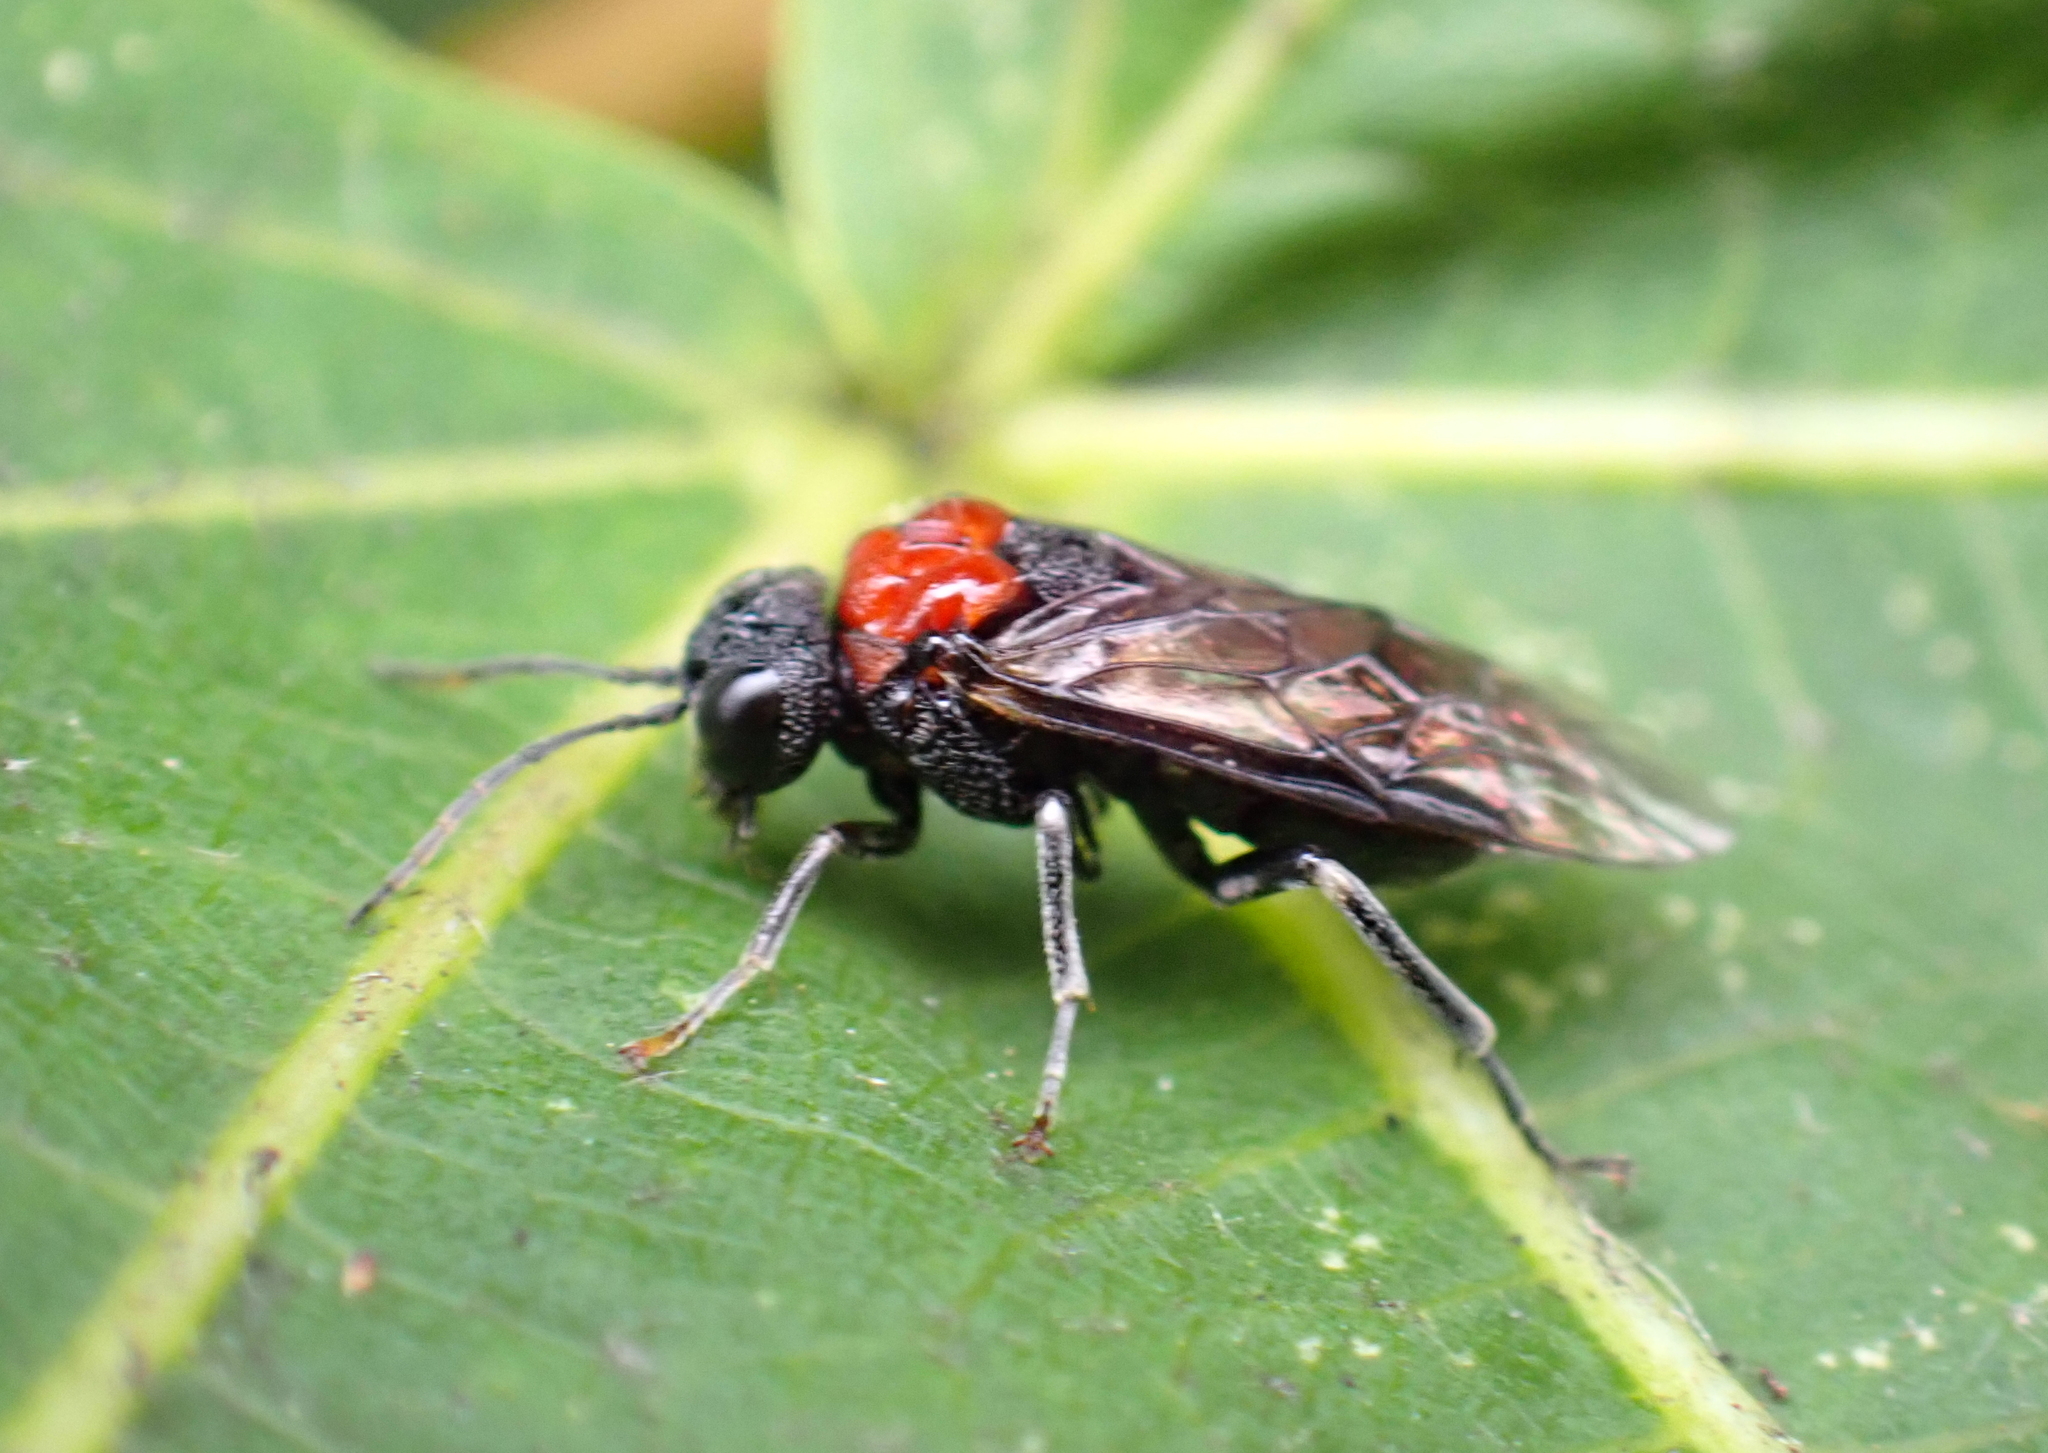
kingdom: Animalia
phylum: Arthropoda
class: Insecta
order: Hymenoptera
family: Tenthredinidae
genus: Eriocampa
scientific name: Eriocampa ovata
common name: Alder wooly sawfly
